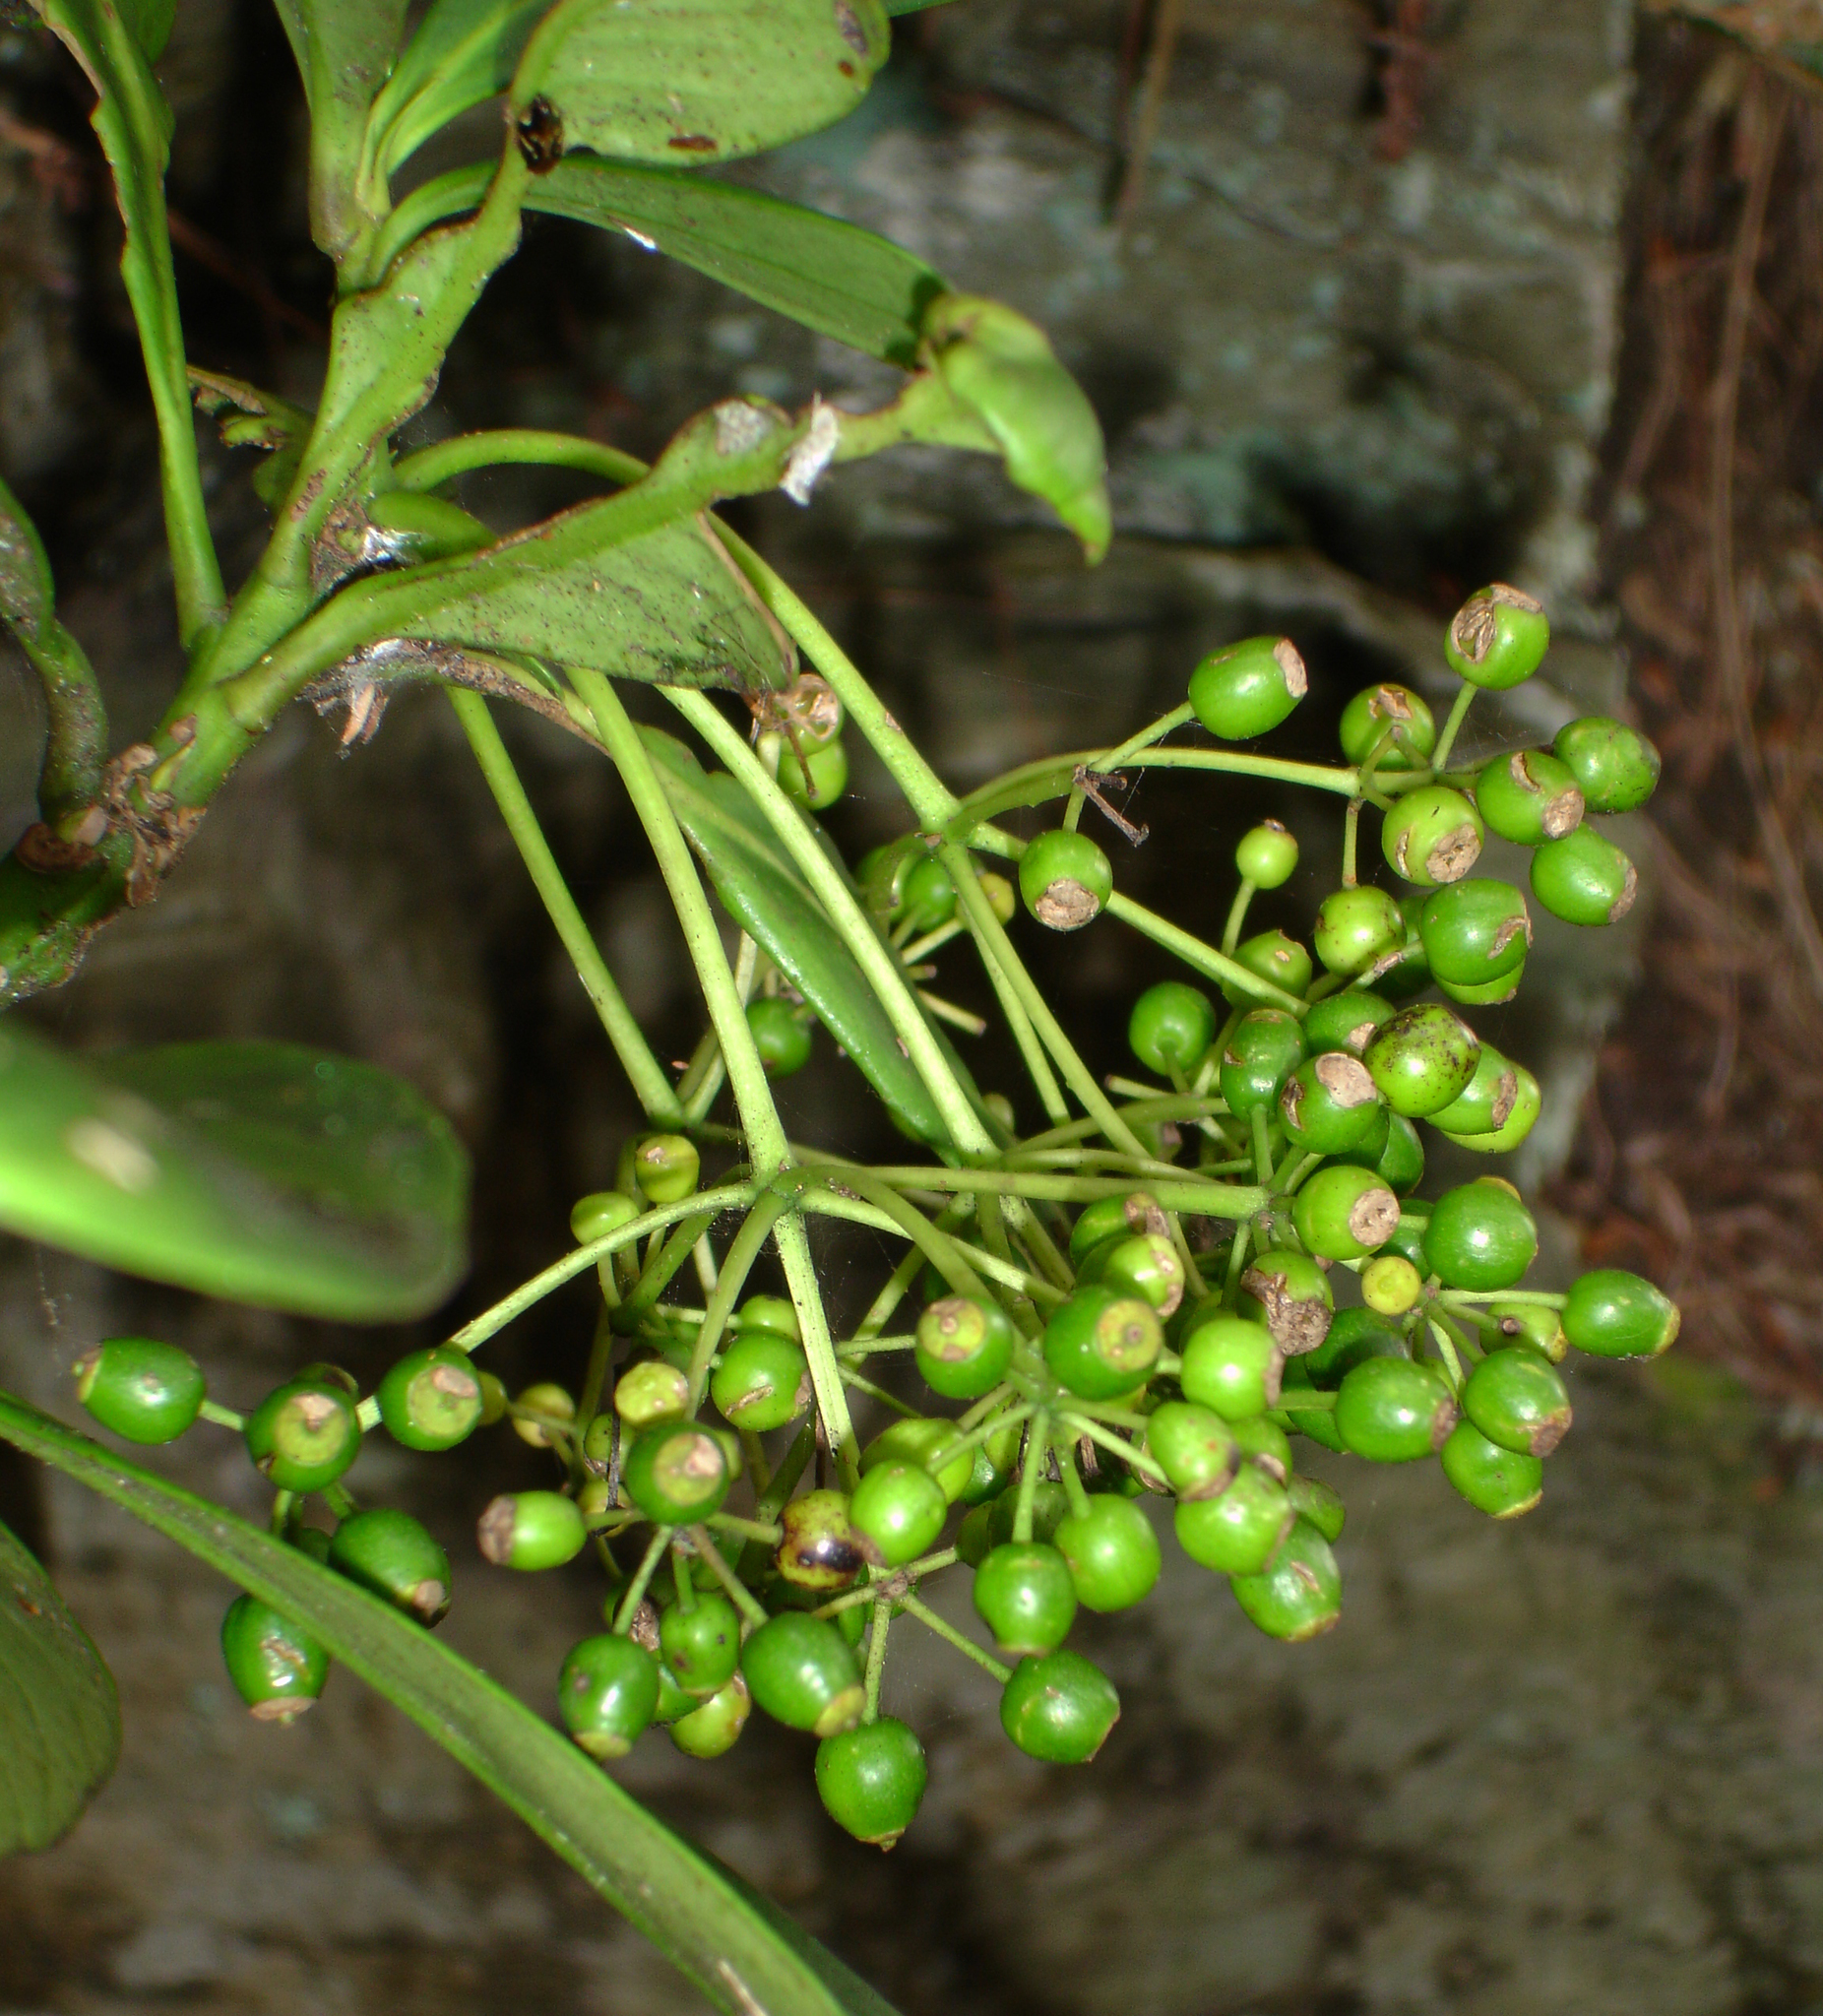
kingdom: Plantae
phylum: Tracheophyta
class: Magnoliopsida
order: Apiales
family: Araliaceae
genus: Pseudopanax
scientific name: Pseudopanax chathamicus
